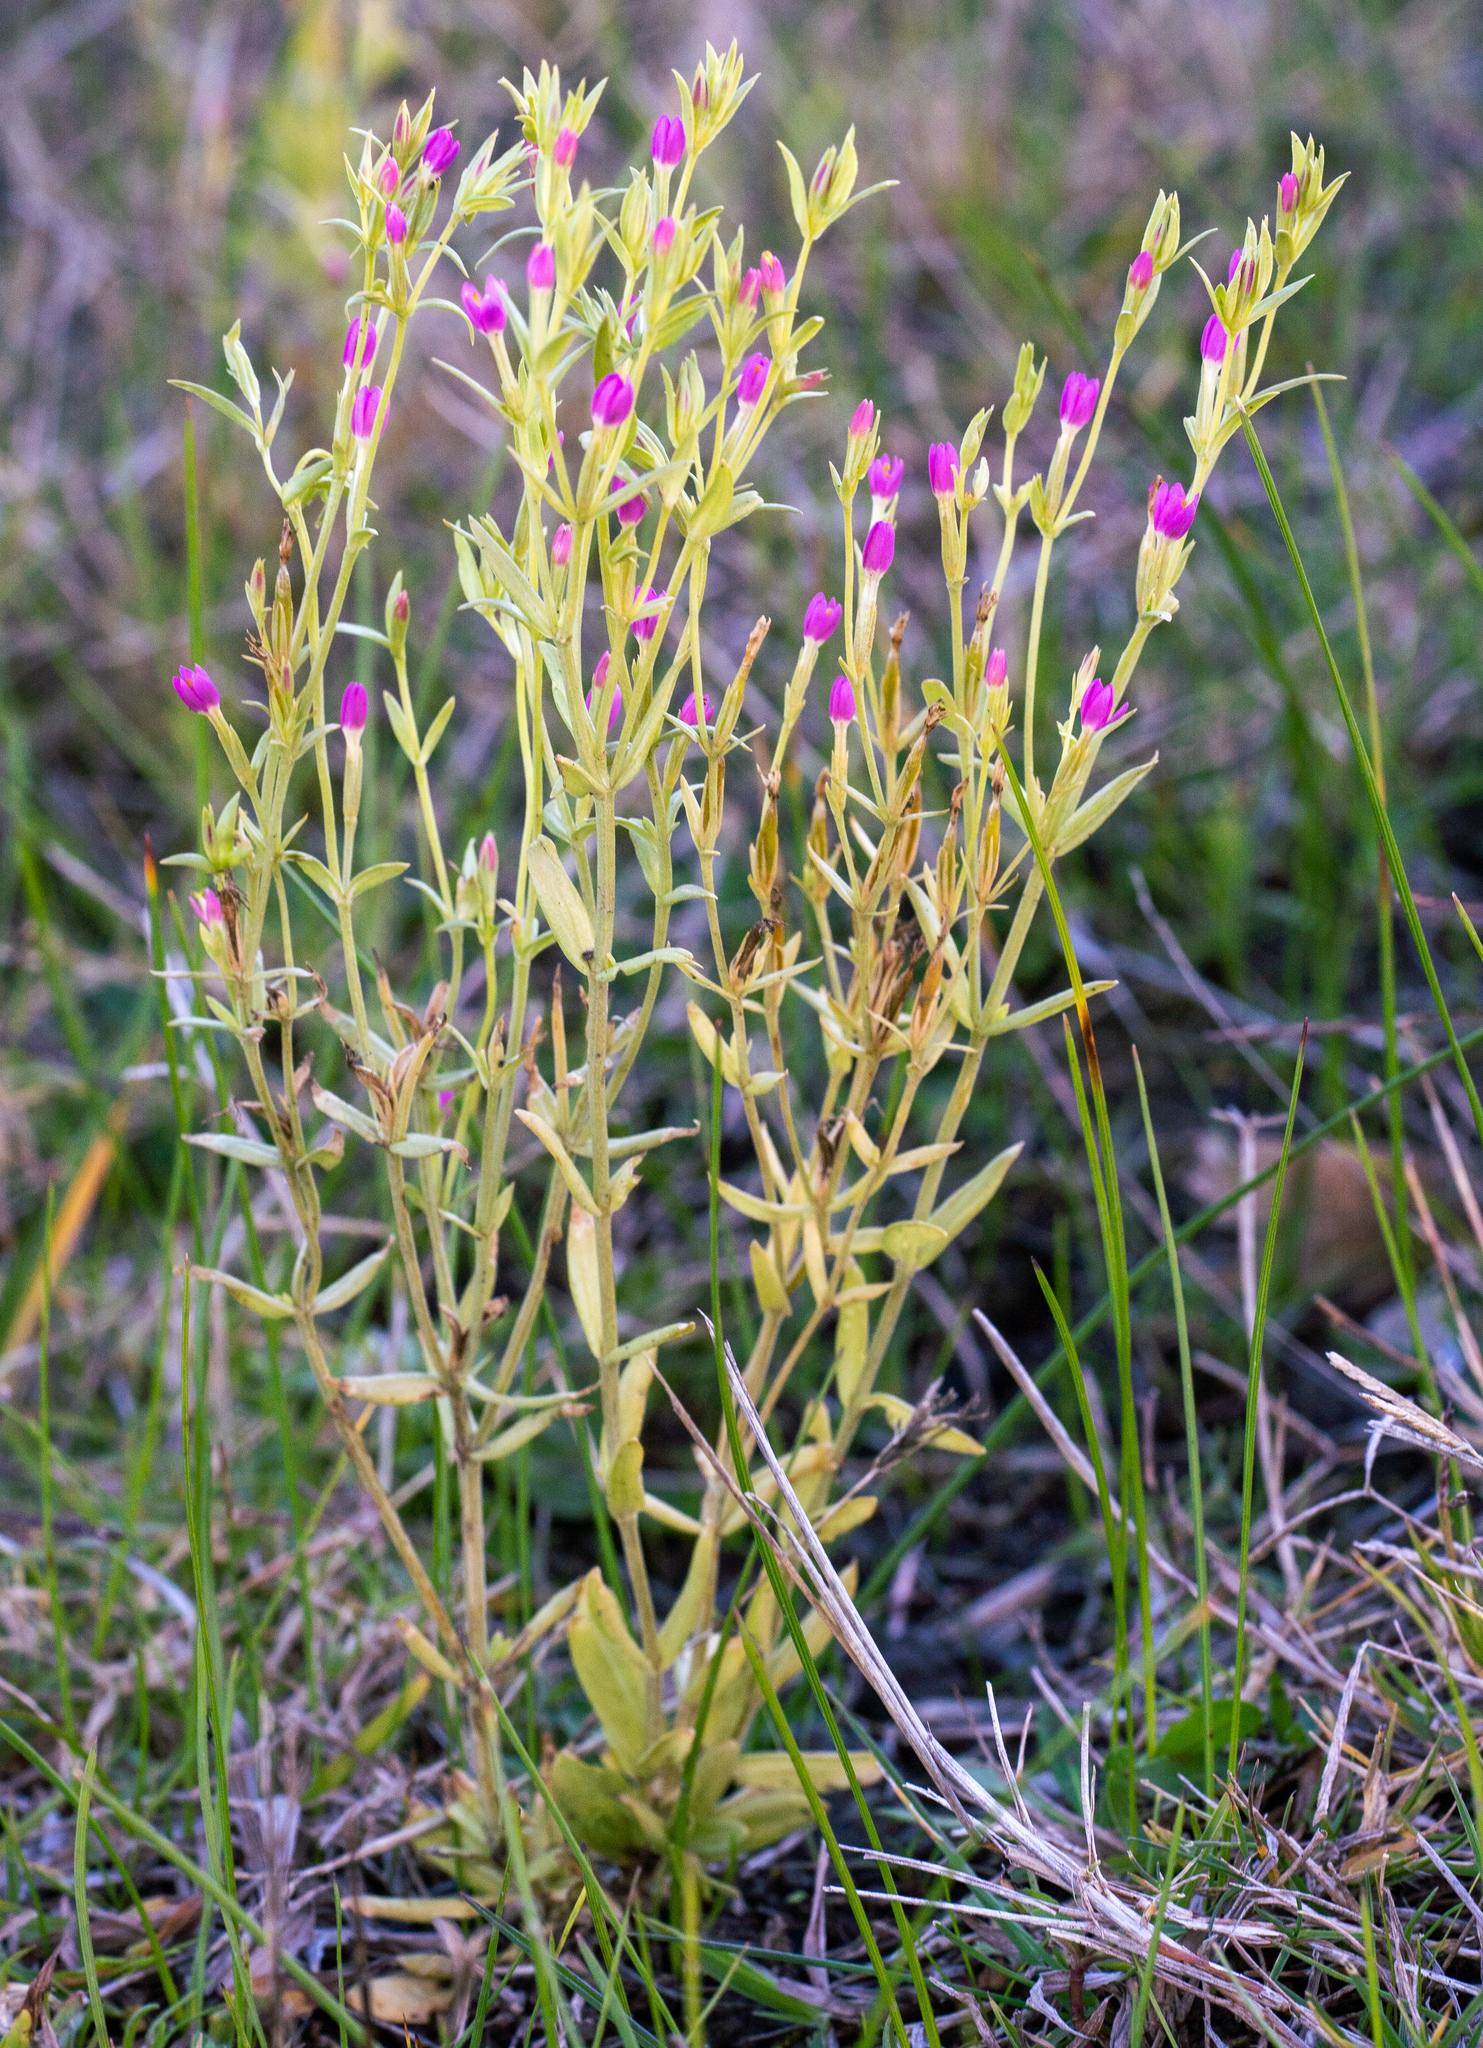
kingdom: Plantae
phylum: Tracheophyta
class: Magnoliopsida
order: Gentianales
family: Gentianaceae
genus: Schenkia
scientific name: Schenkia australis
